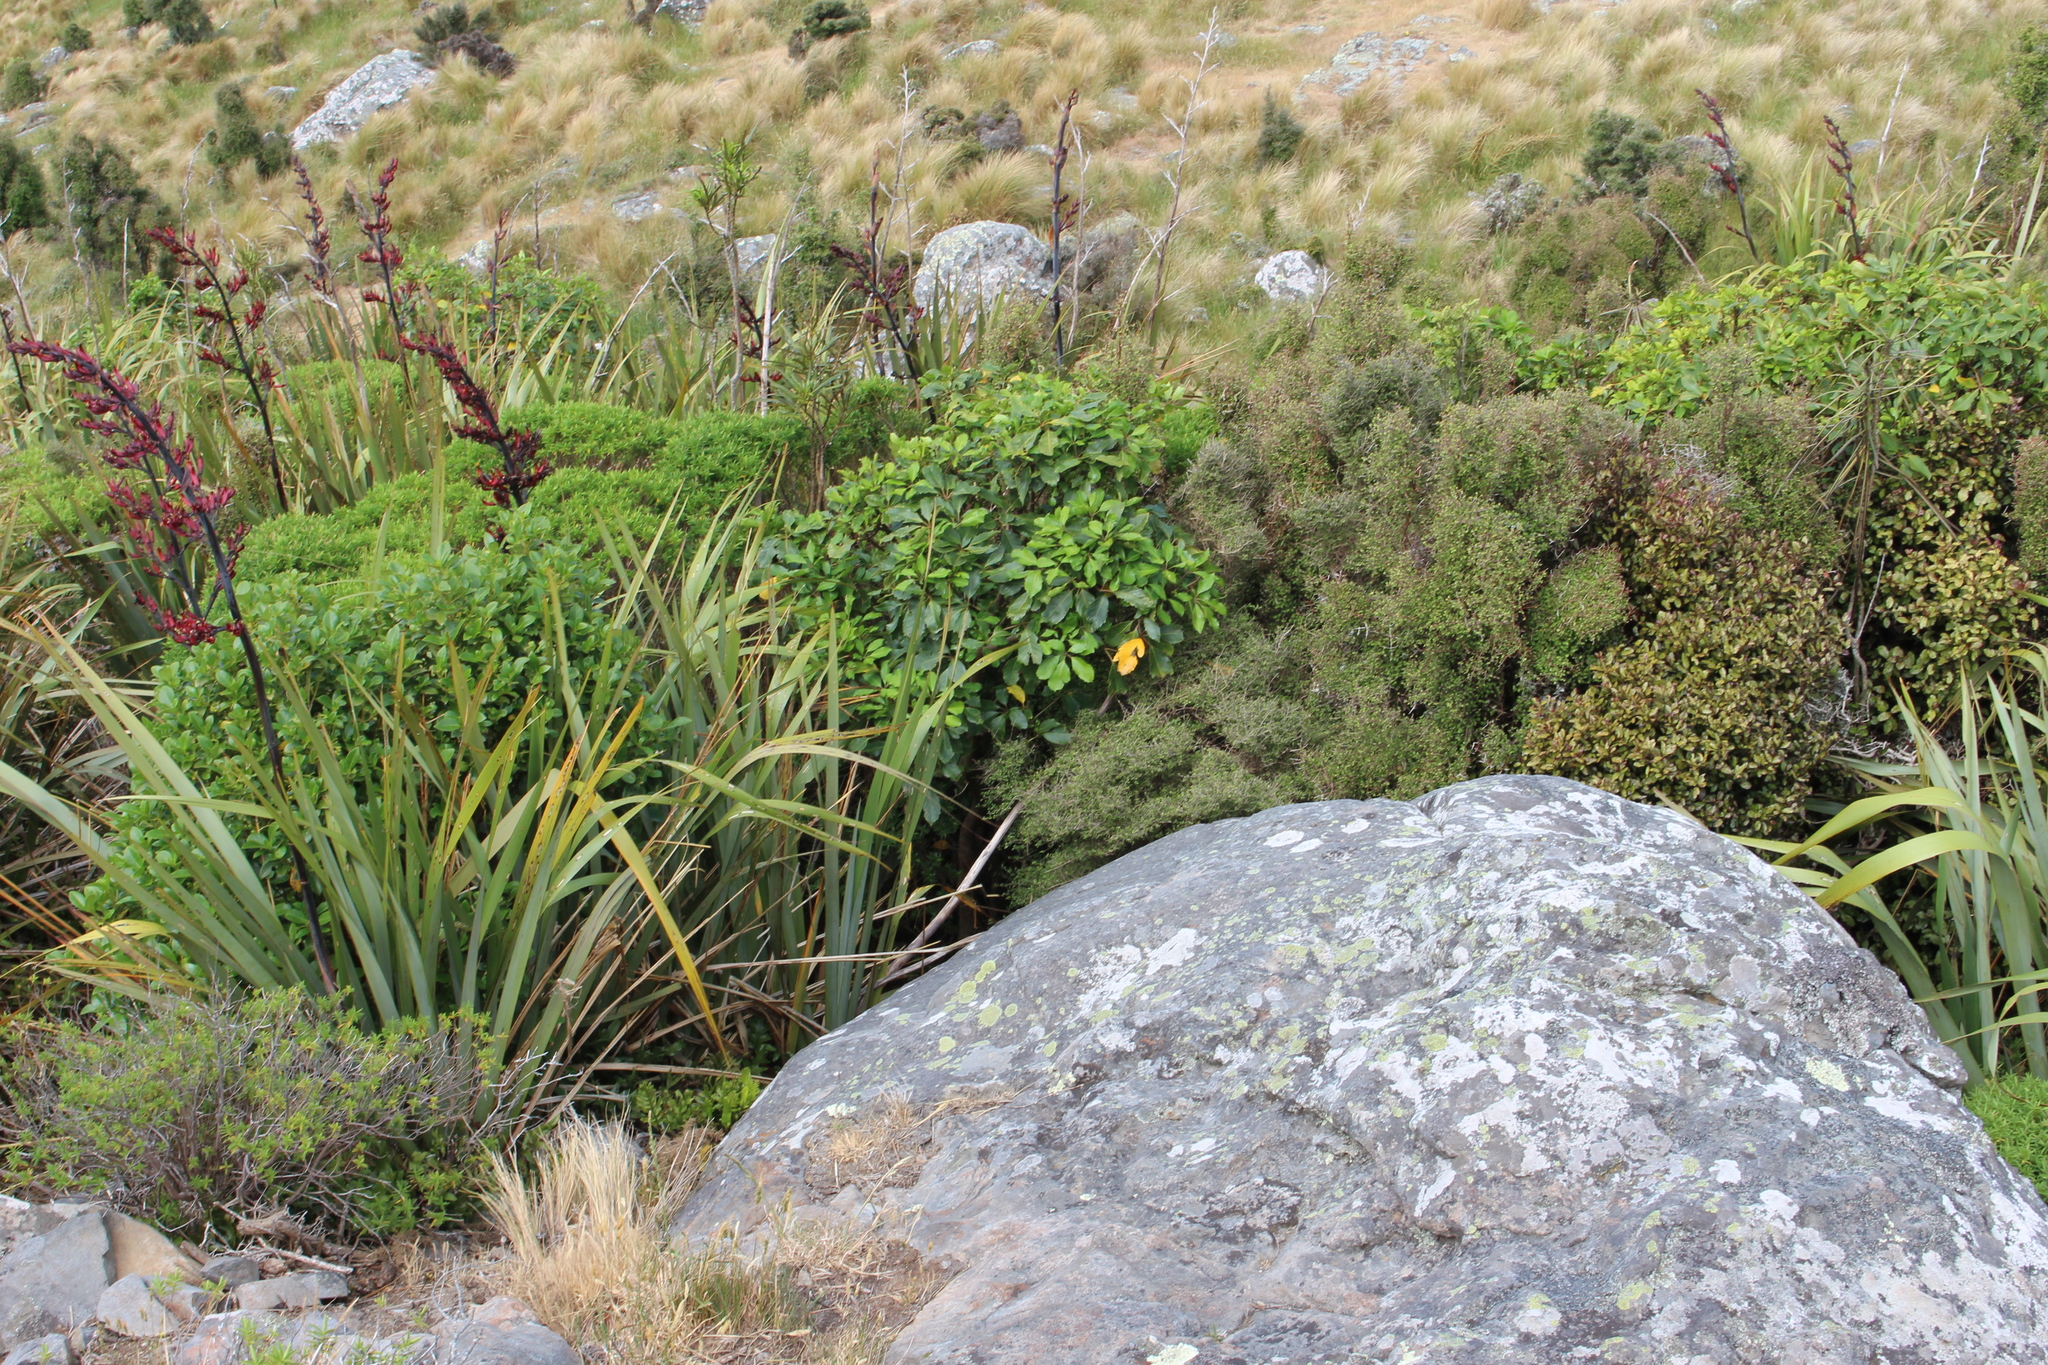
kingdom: Plantae
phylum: Tracheophyta
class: Liliopsida
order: Asparagales
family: Asphodelaceae
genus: Phormium
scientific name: Phormium tenax
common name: New zealand flax
